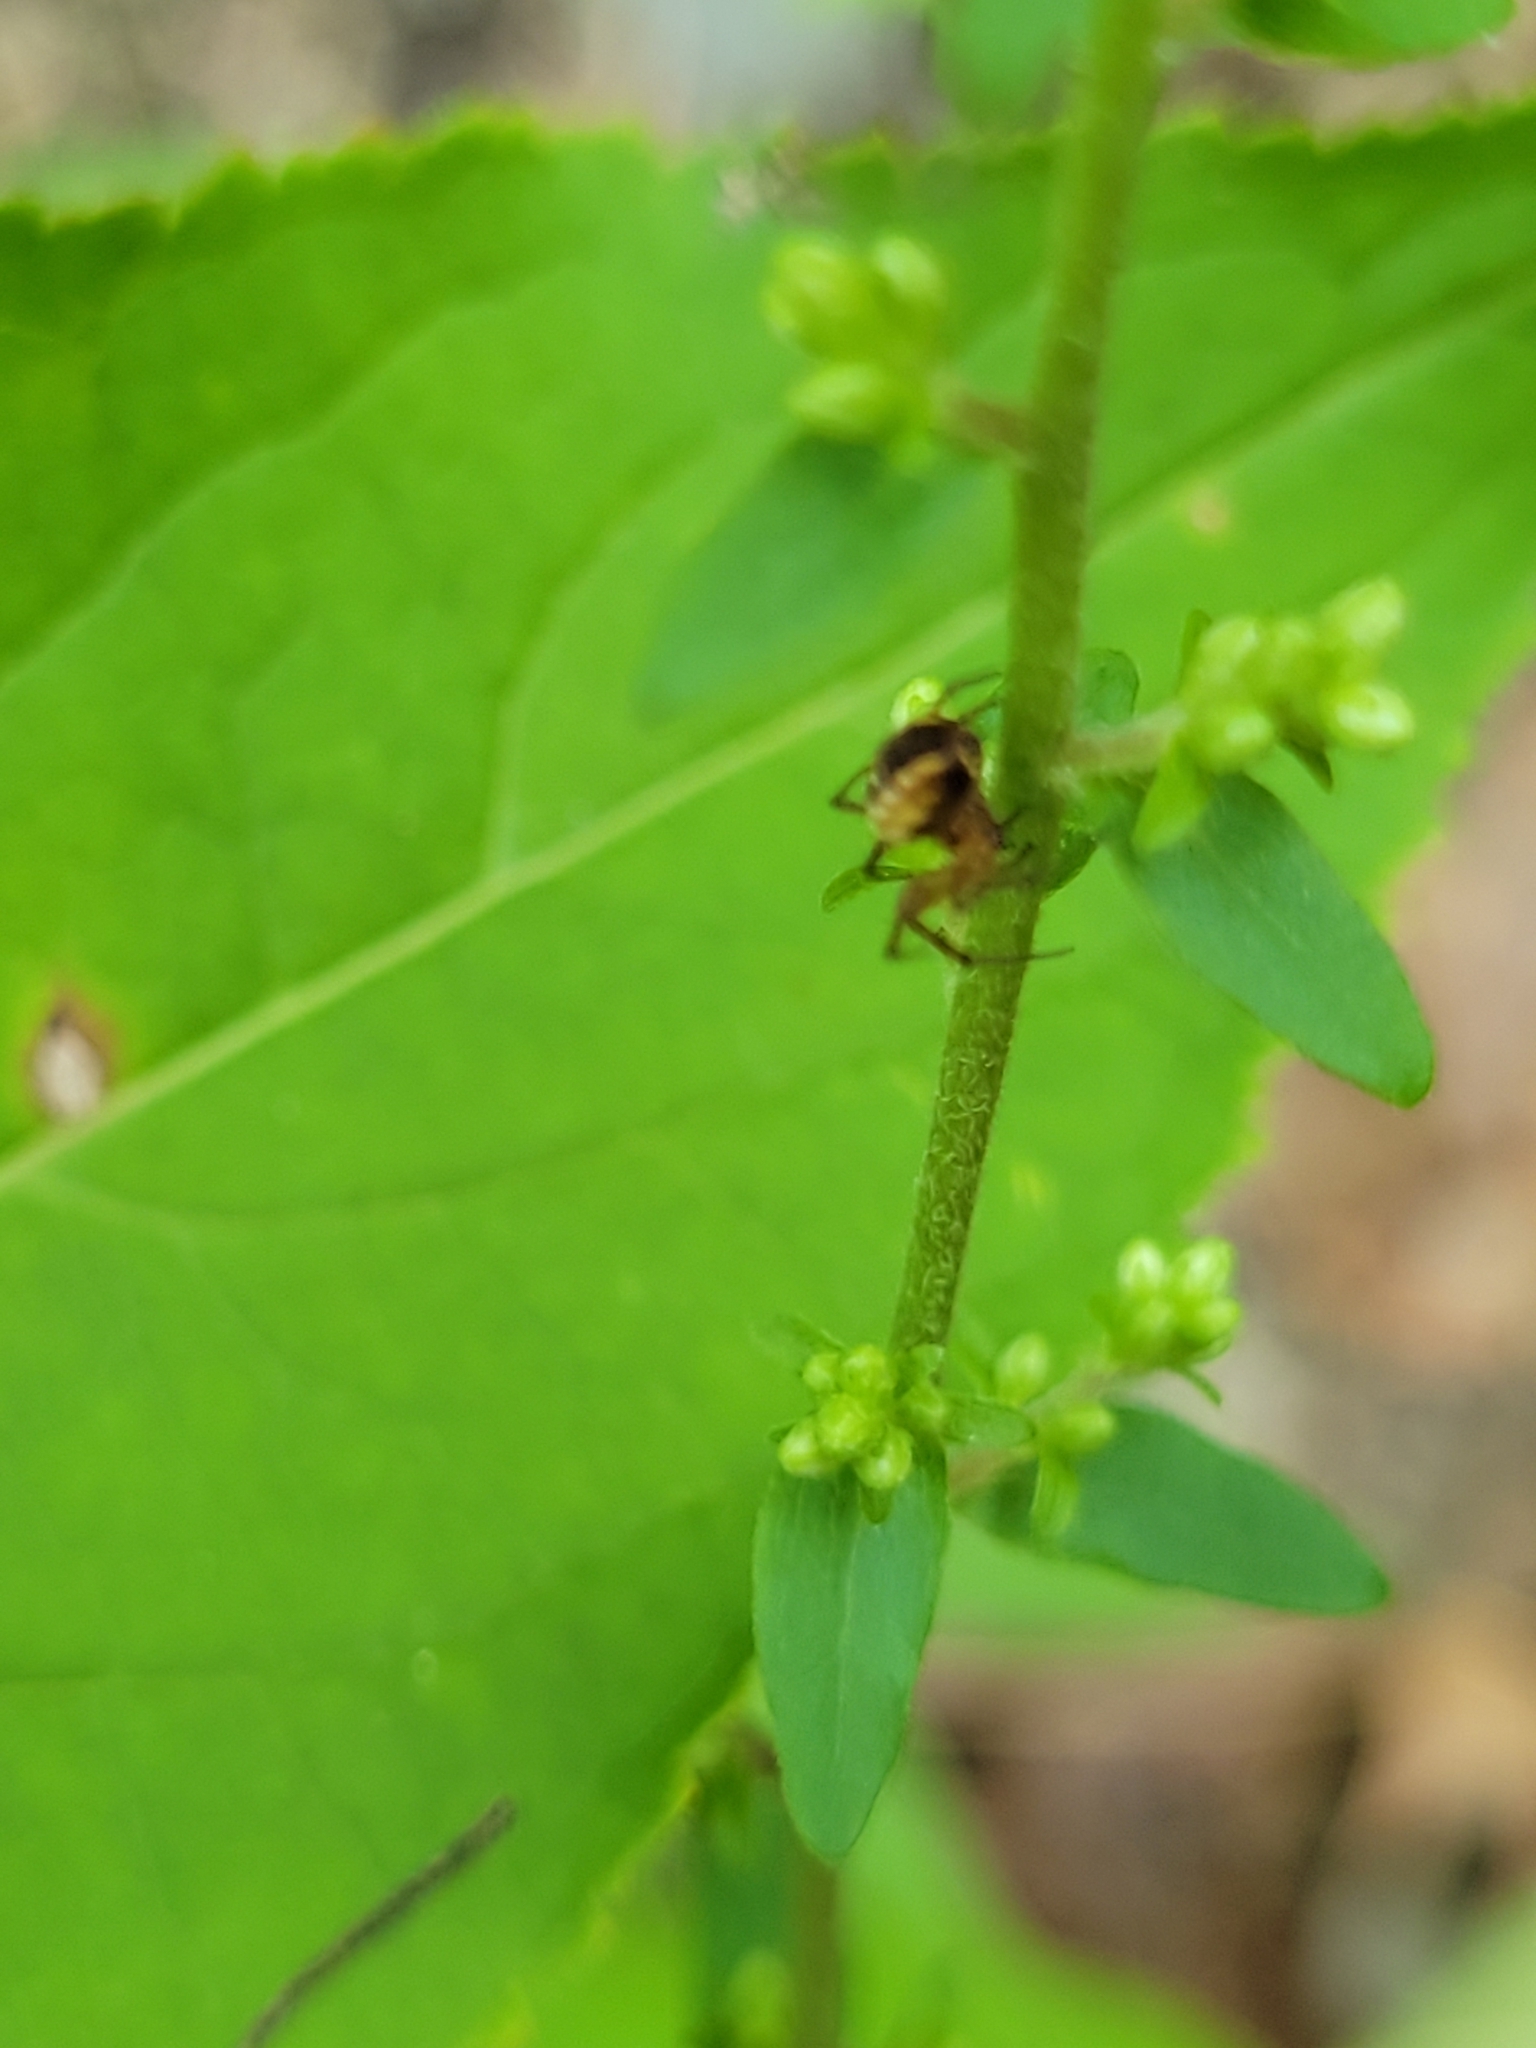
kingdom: Animalia
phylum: Arthropoda
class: Arachnida
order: Araneae
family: Araneidae
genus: Mangora
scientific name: Mangora placida
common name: Tuft-legged orbweaver
